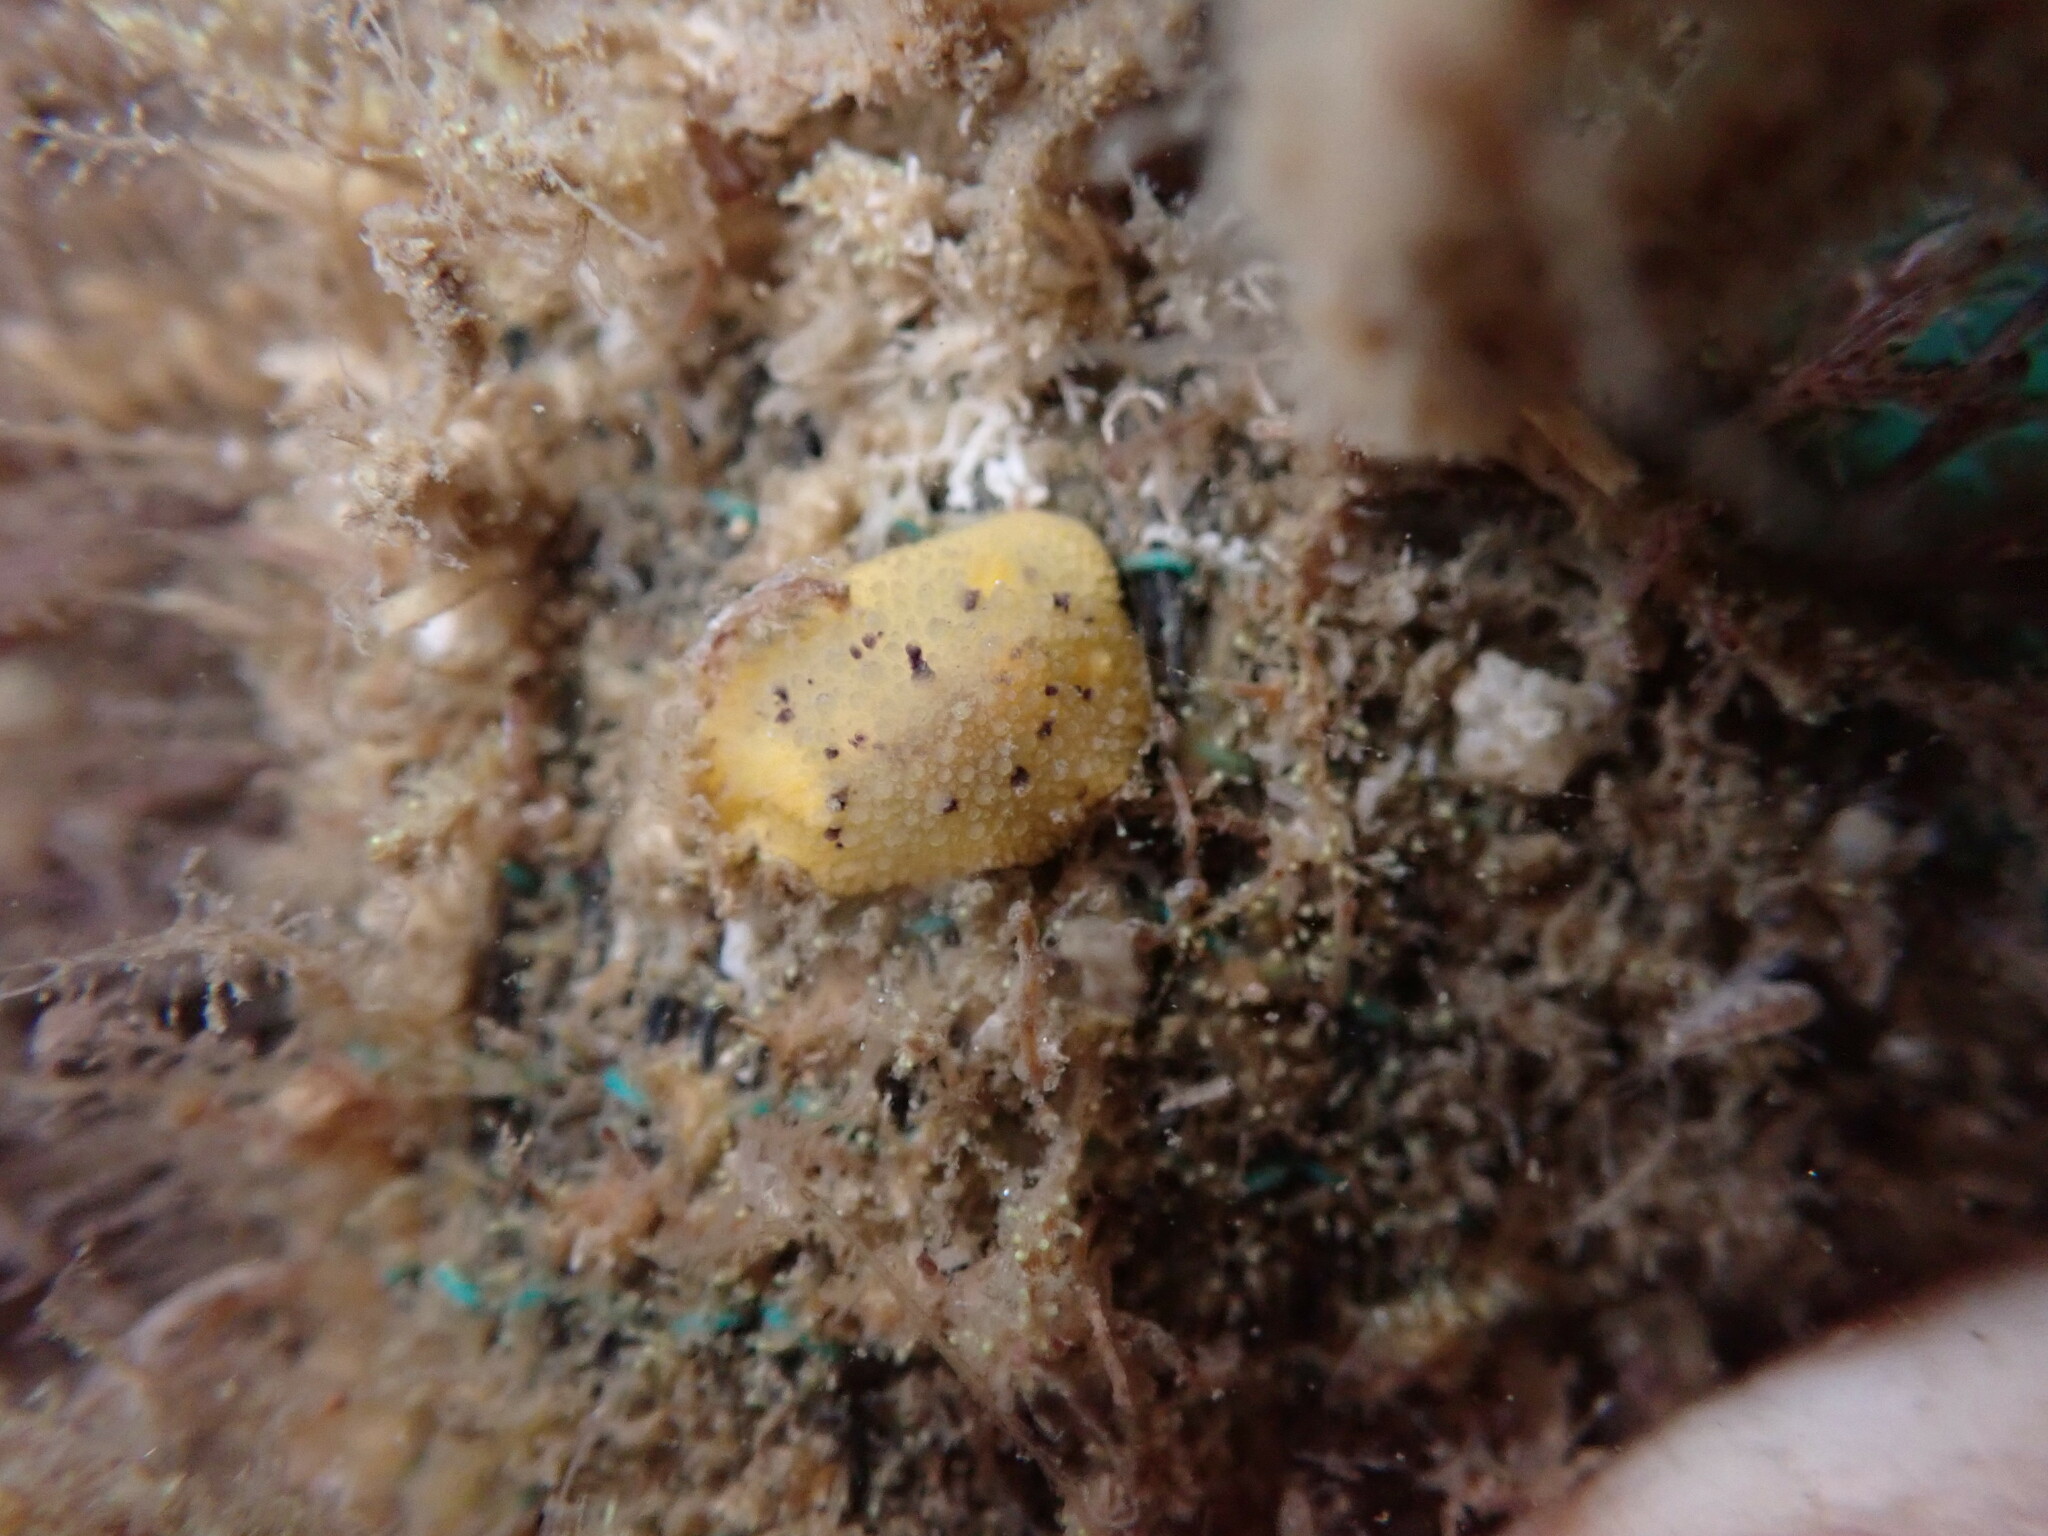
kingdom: Animalia
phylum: Mollusca
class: Gastropoda
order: Nudibranchia
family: Dorididae
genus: Doris
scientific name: Doris montereyensis
